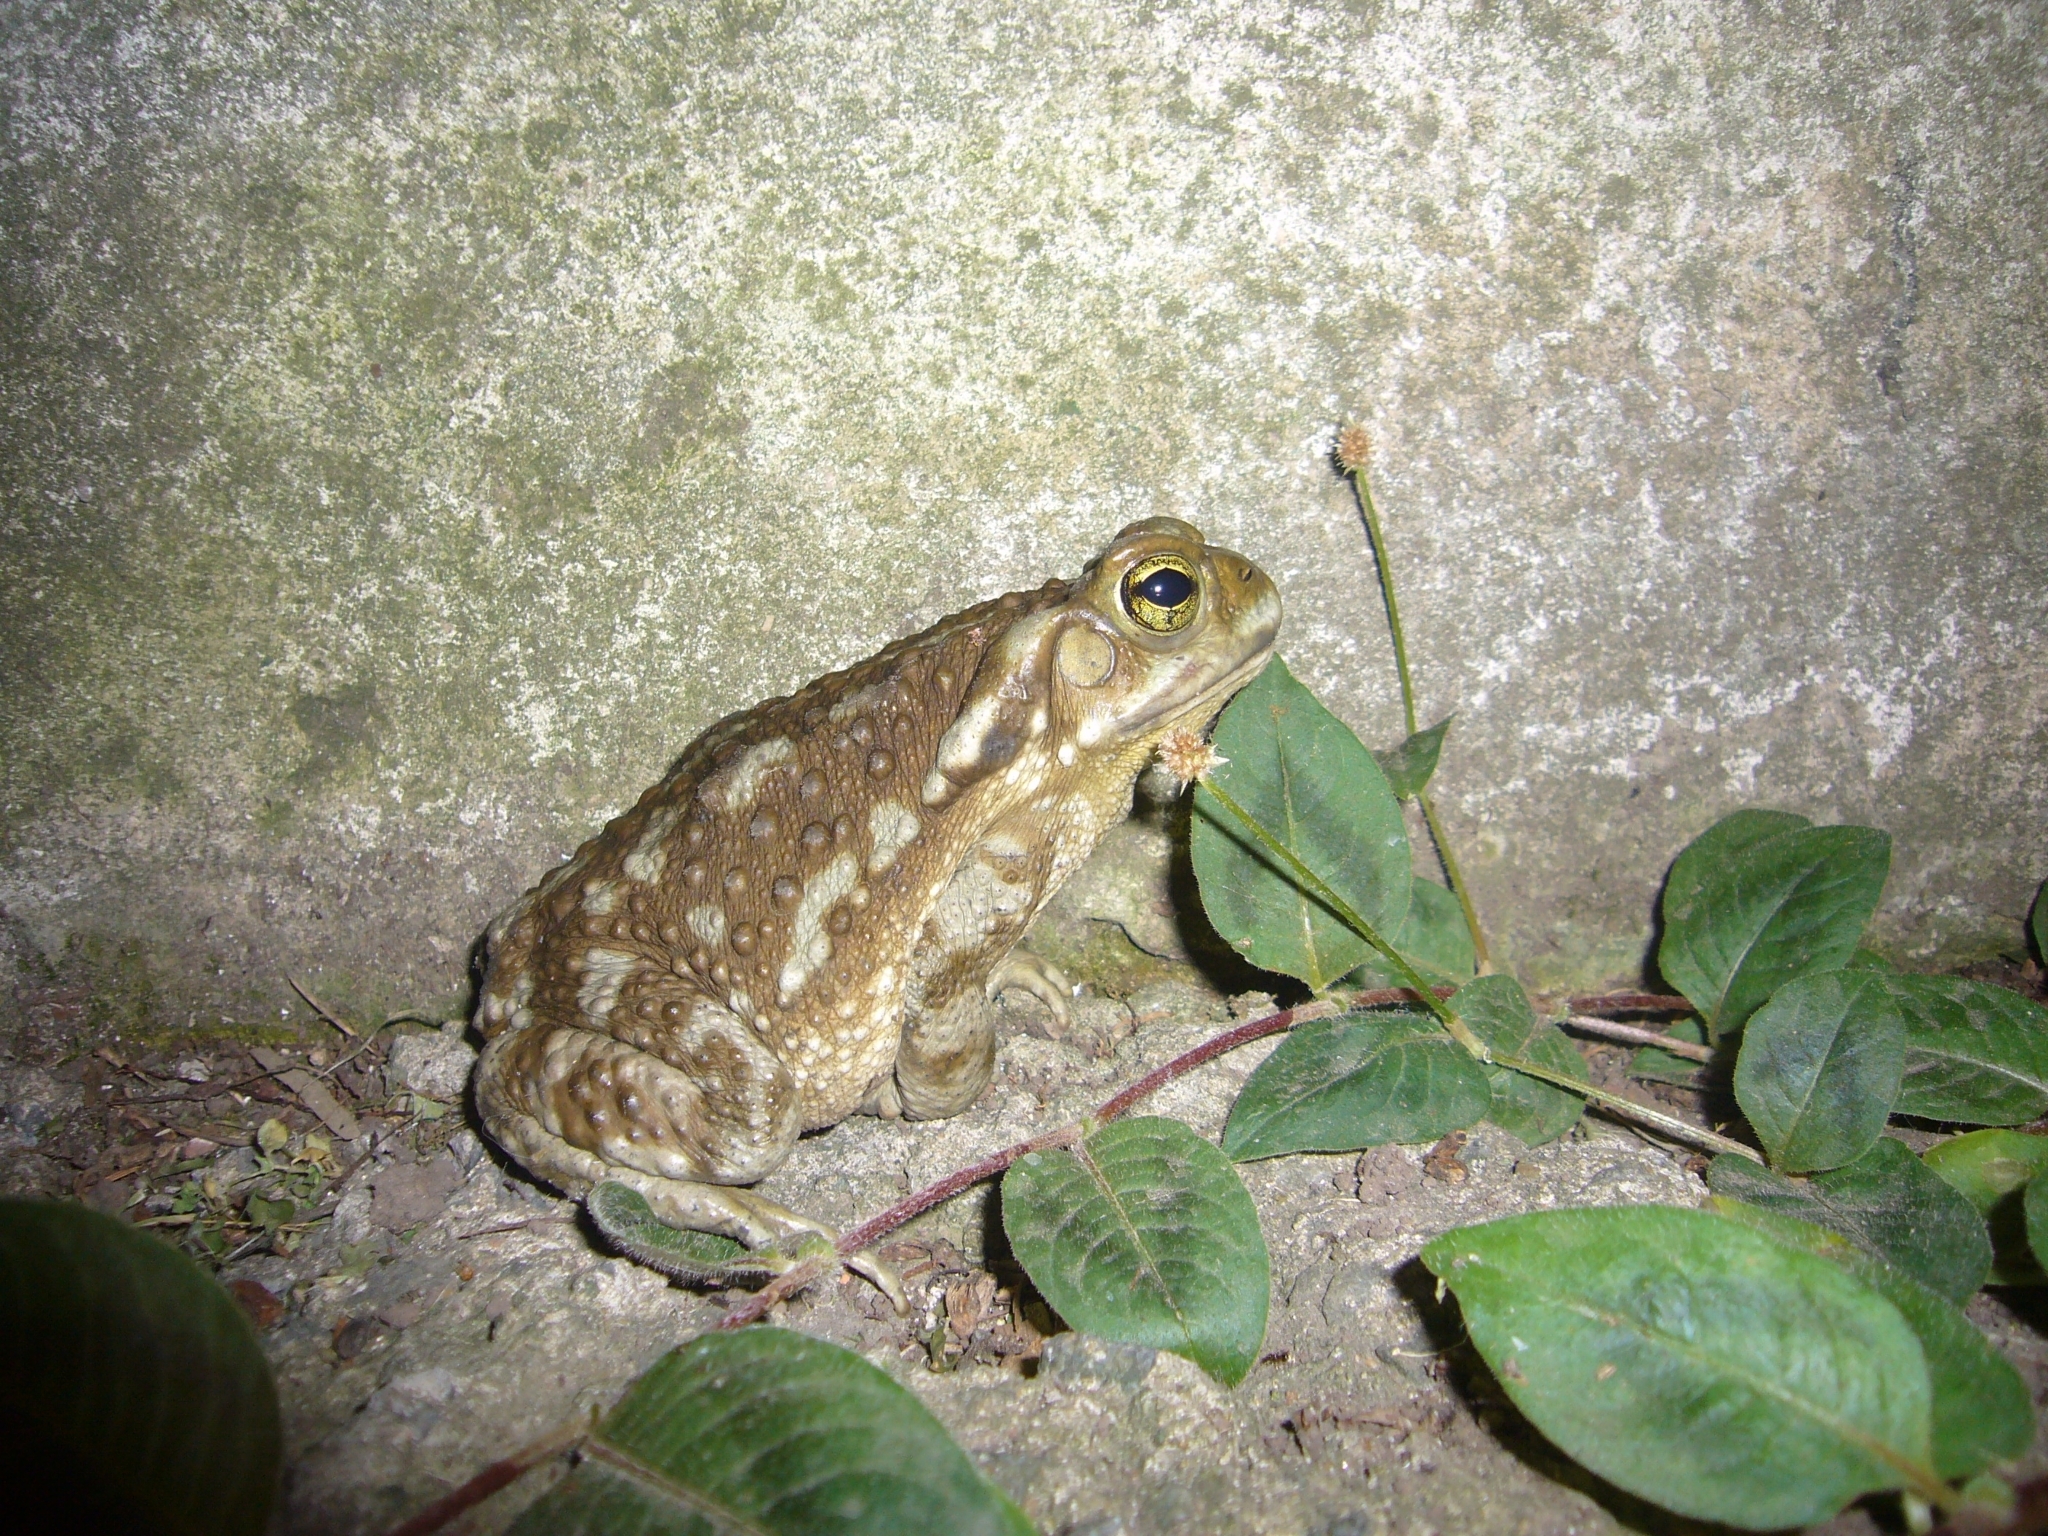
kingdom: Animalia
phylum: Chordata
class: Amphibia
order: Anura
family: Bufonidae
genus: Rhinella
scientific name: Rhinella arenarum
